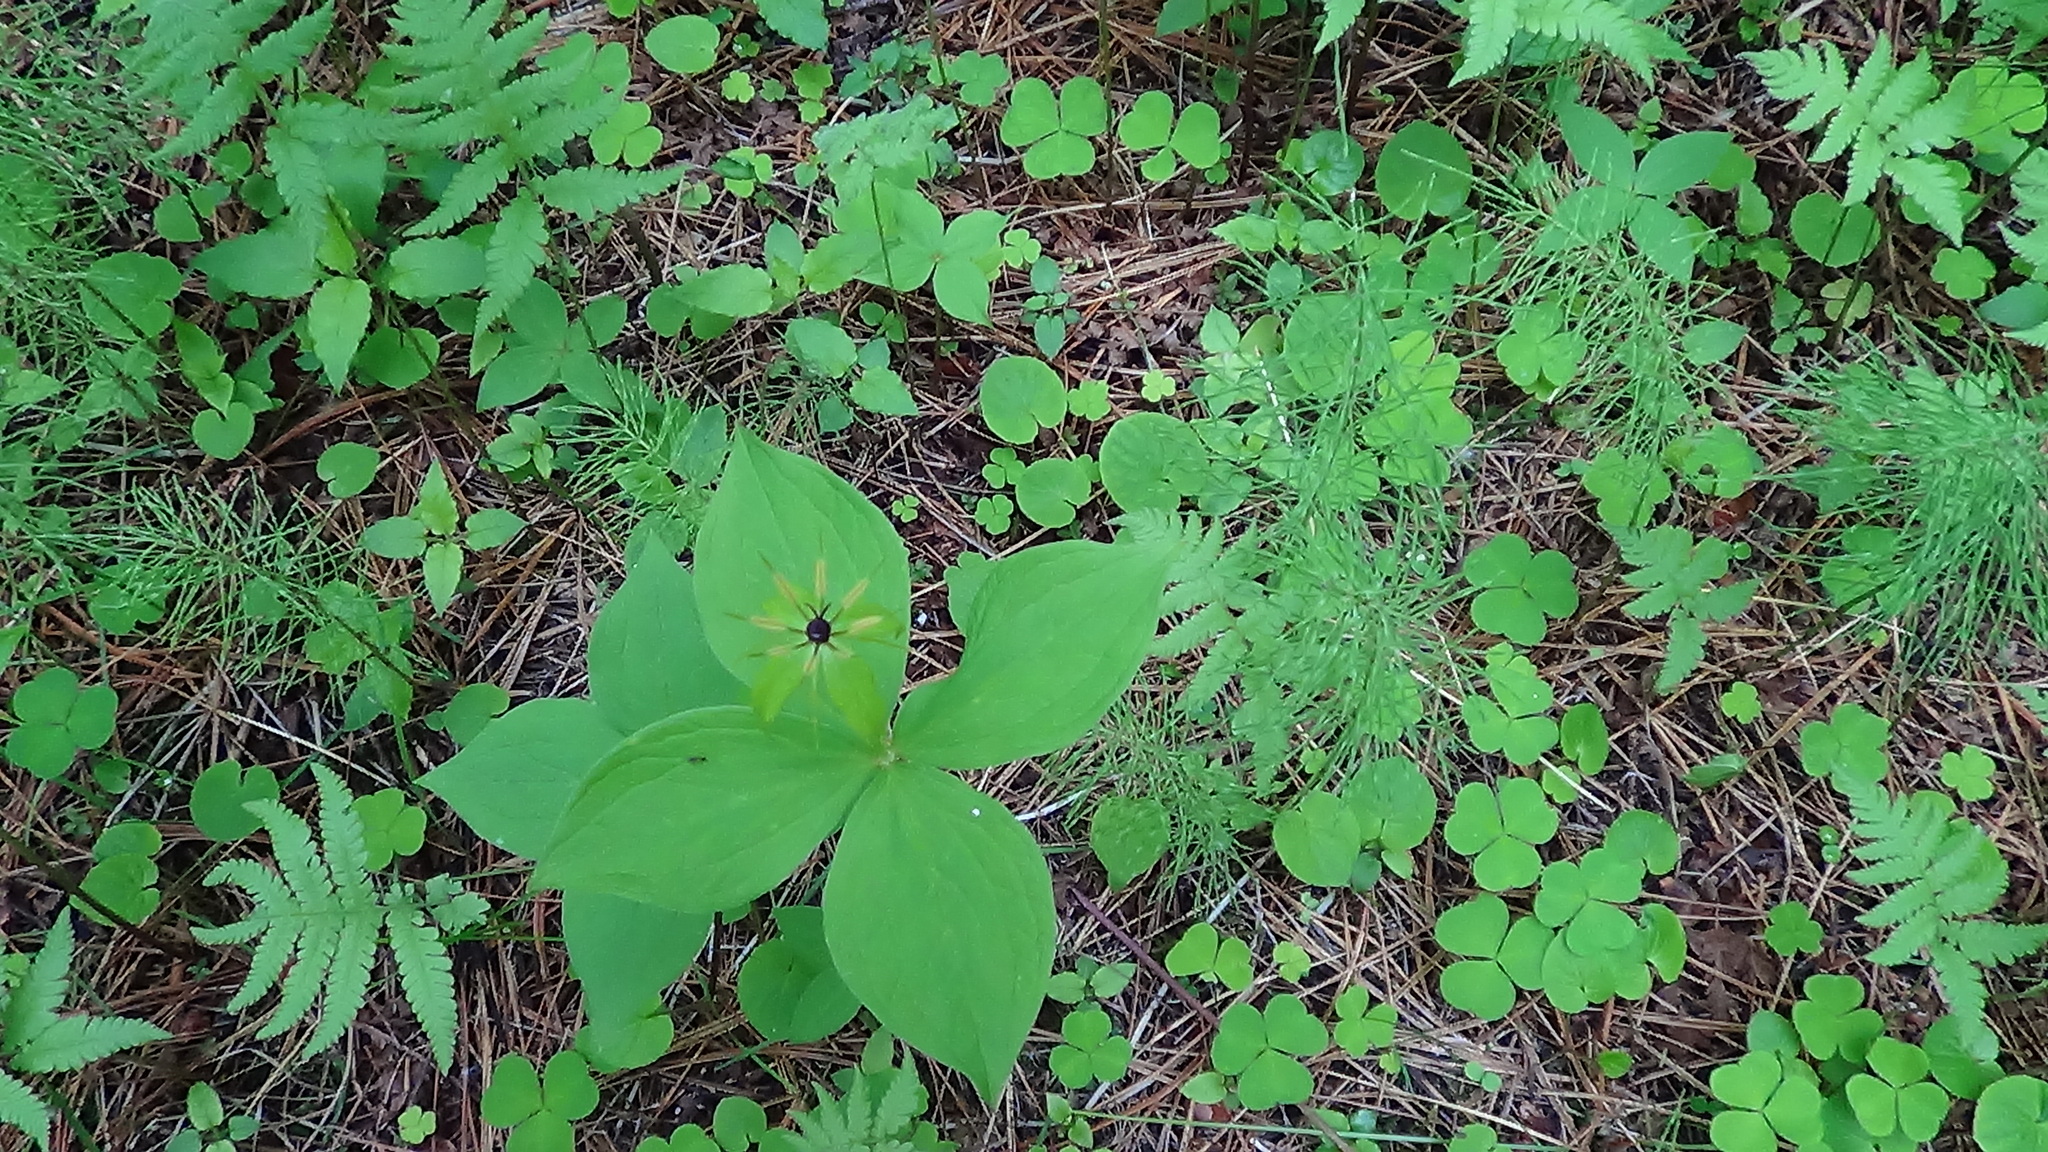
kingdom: Plantae
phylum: Tracheophyta
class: Liliopsida
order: Liliales
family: Melanthiaceae
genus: Paris
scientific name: Paris quadrifolia
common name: Herb-paris
